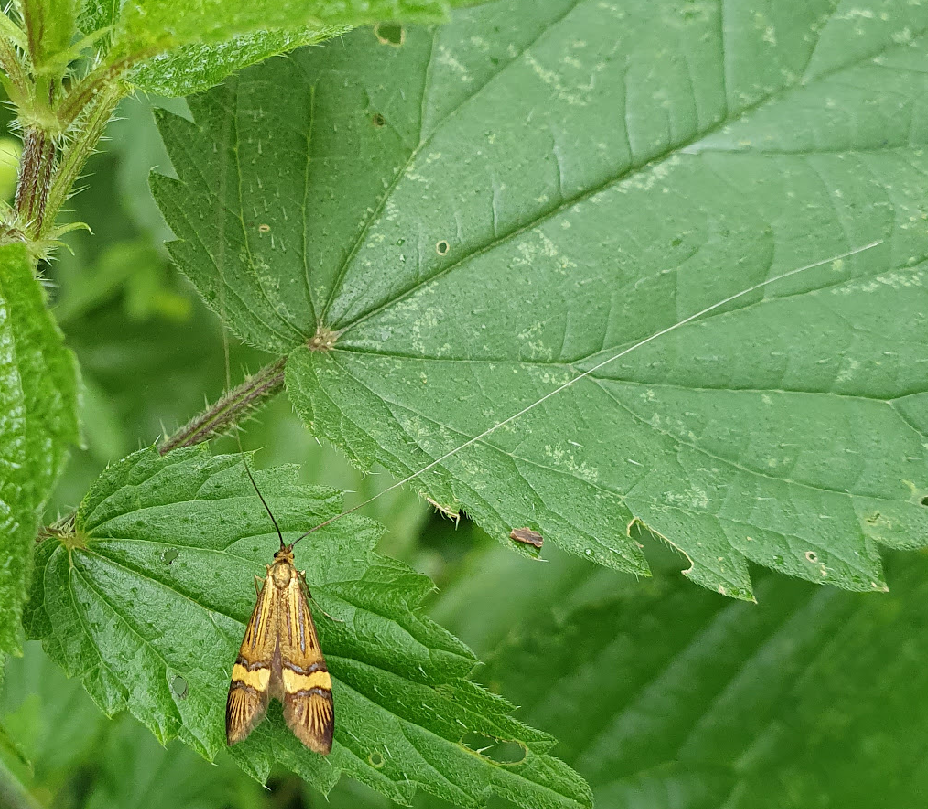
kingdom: Animalia
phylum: Arthropoda
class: Insecta
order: Lepidoptera
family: Adelidae
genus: Nemophora
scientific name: Nemophora degeerella
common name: Yellow-barred long-horn
